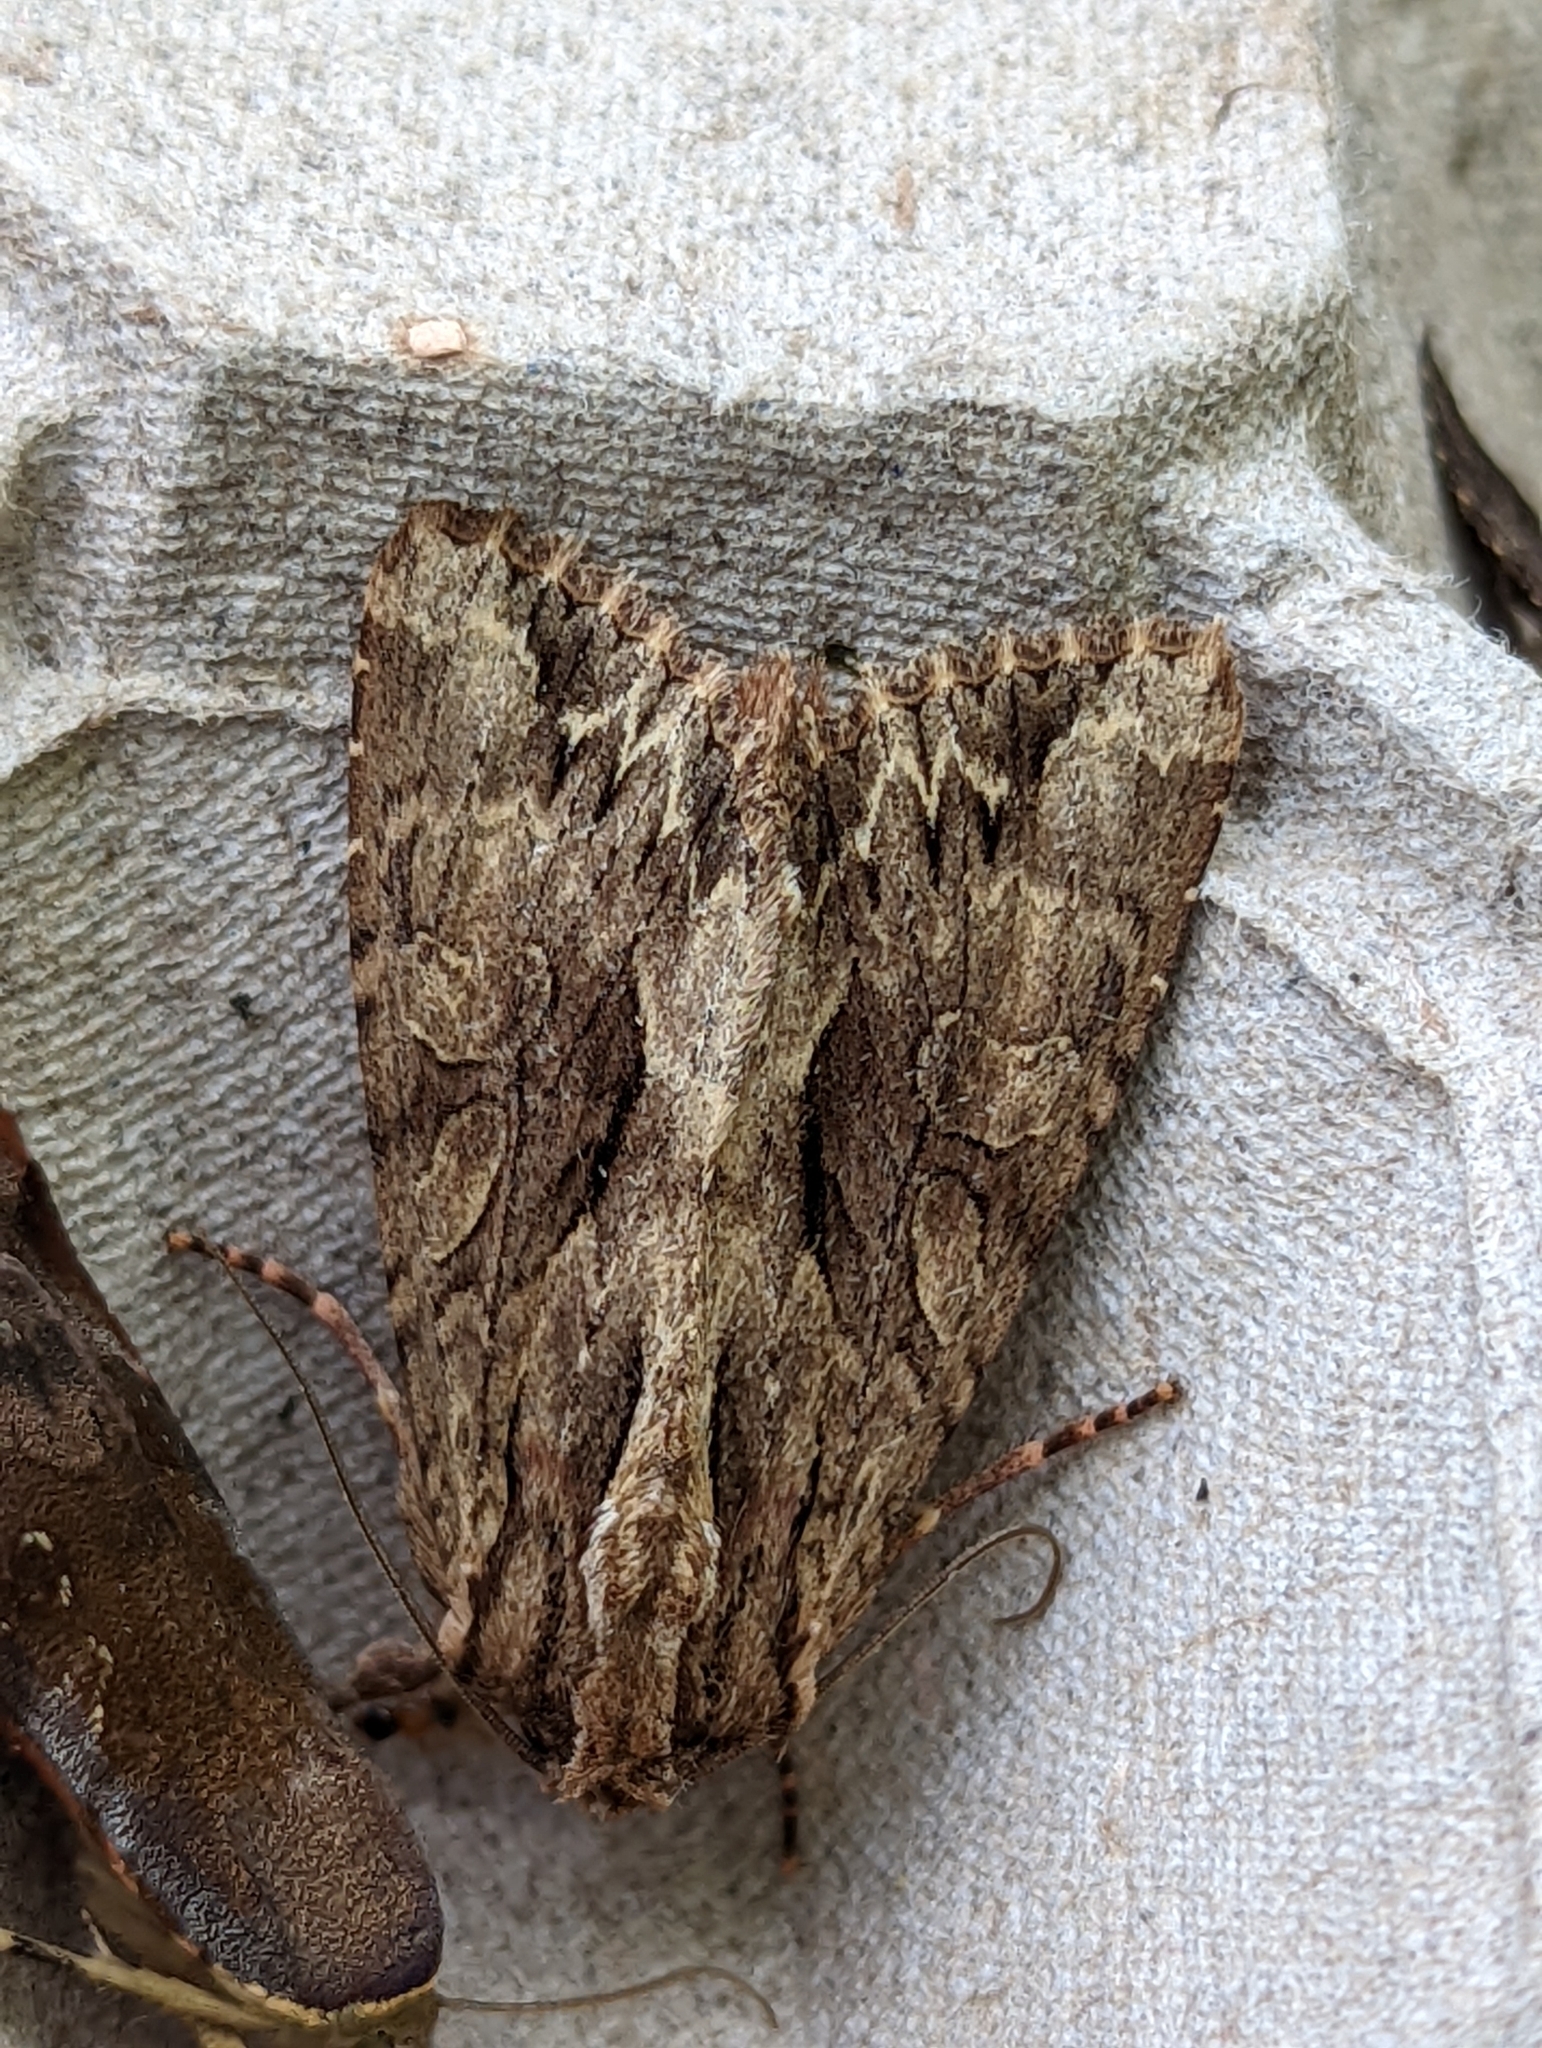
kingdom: Animalia
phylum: Arthropoda
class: Insecta
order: Lepidoptera
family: Noctuidae
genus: Apamea
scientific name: Apamea monoglypha
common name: Dark arches
